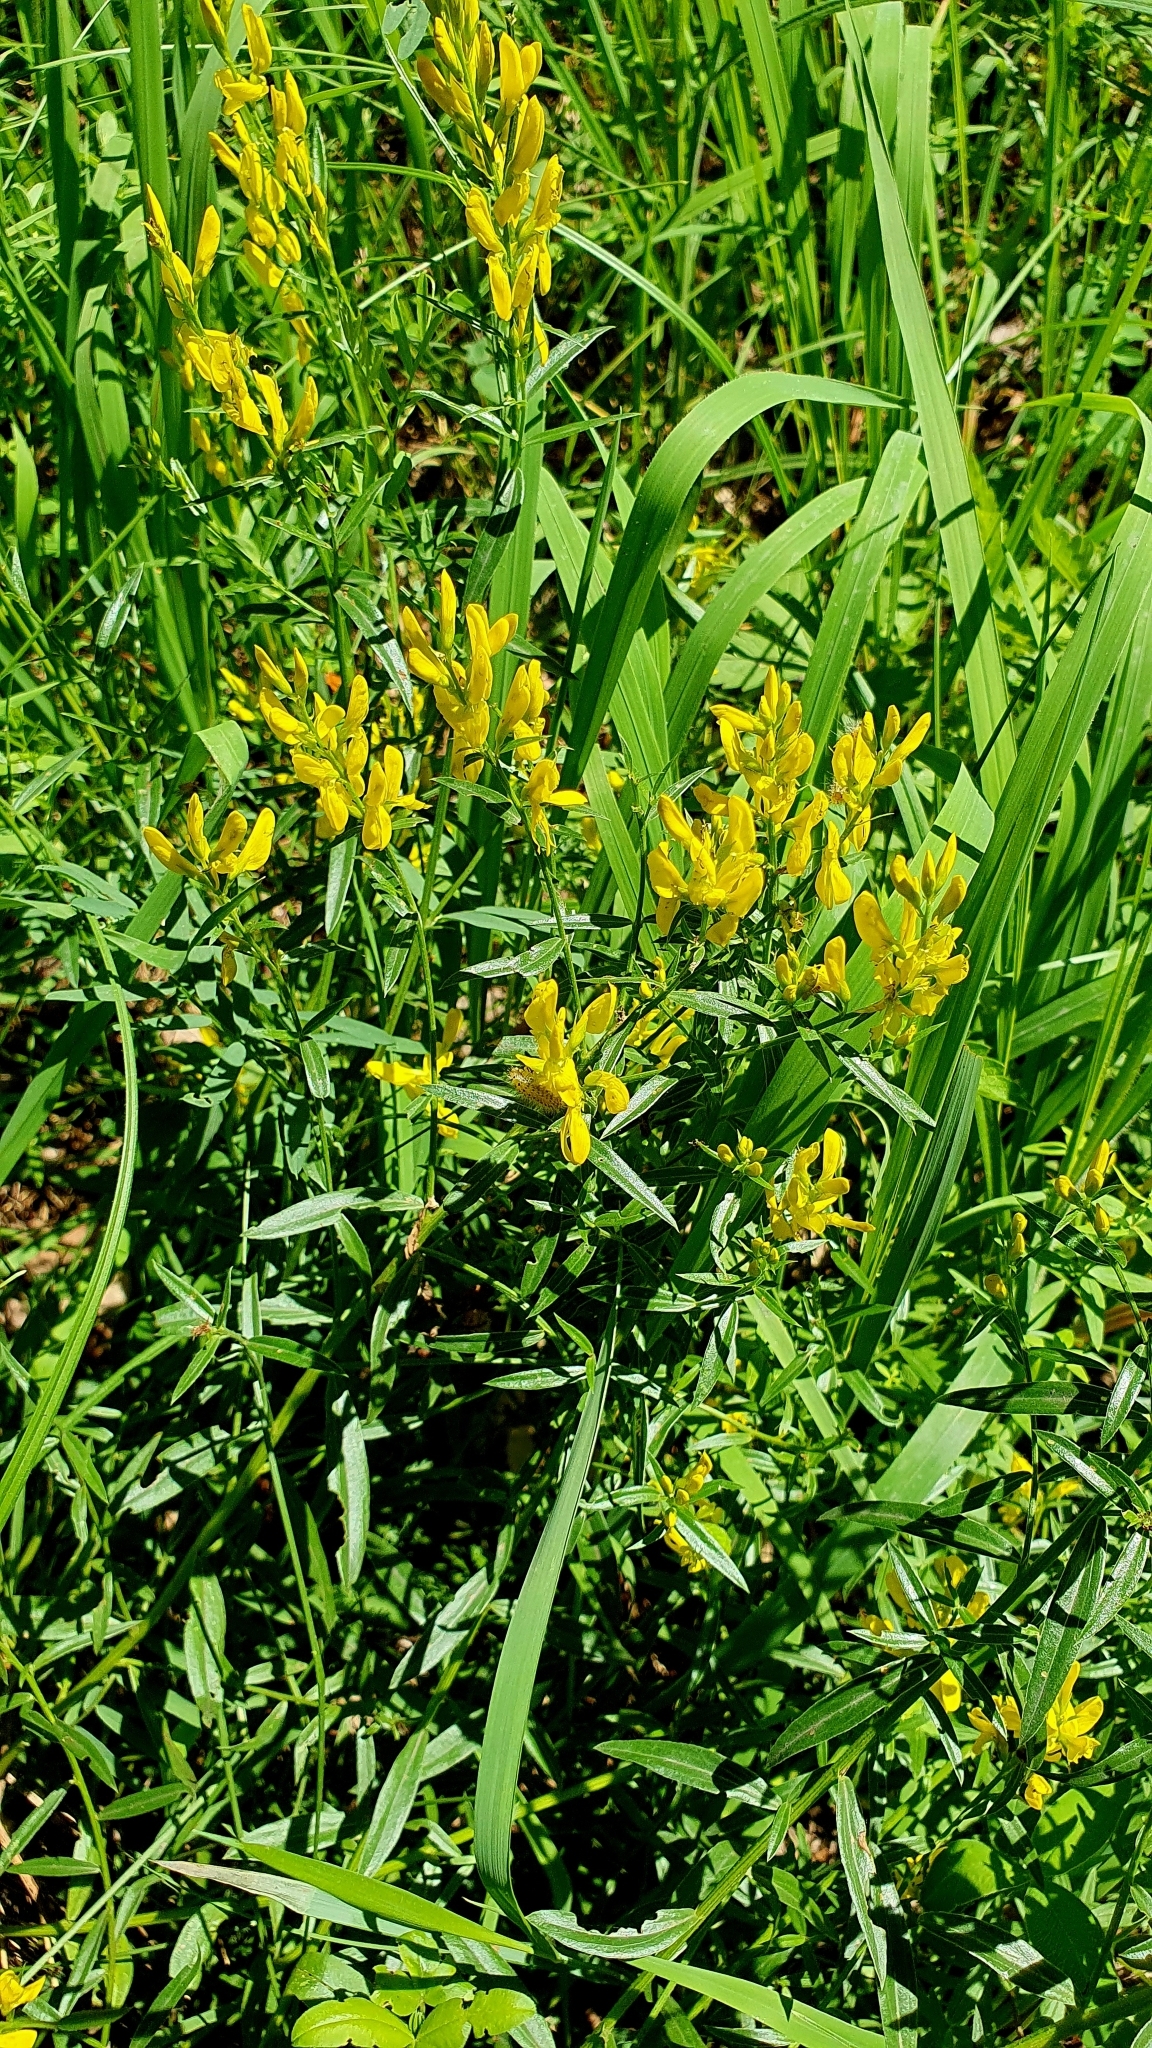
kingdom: Plantae
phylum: Tracheophyta
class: Magnoliopsida
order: Fabales
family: Fabaceae
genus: Genista
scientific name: Genista tinctoria
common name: Dyer's greenweed
